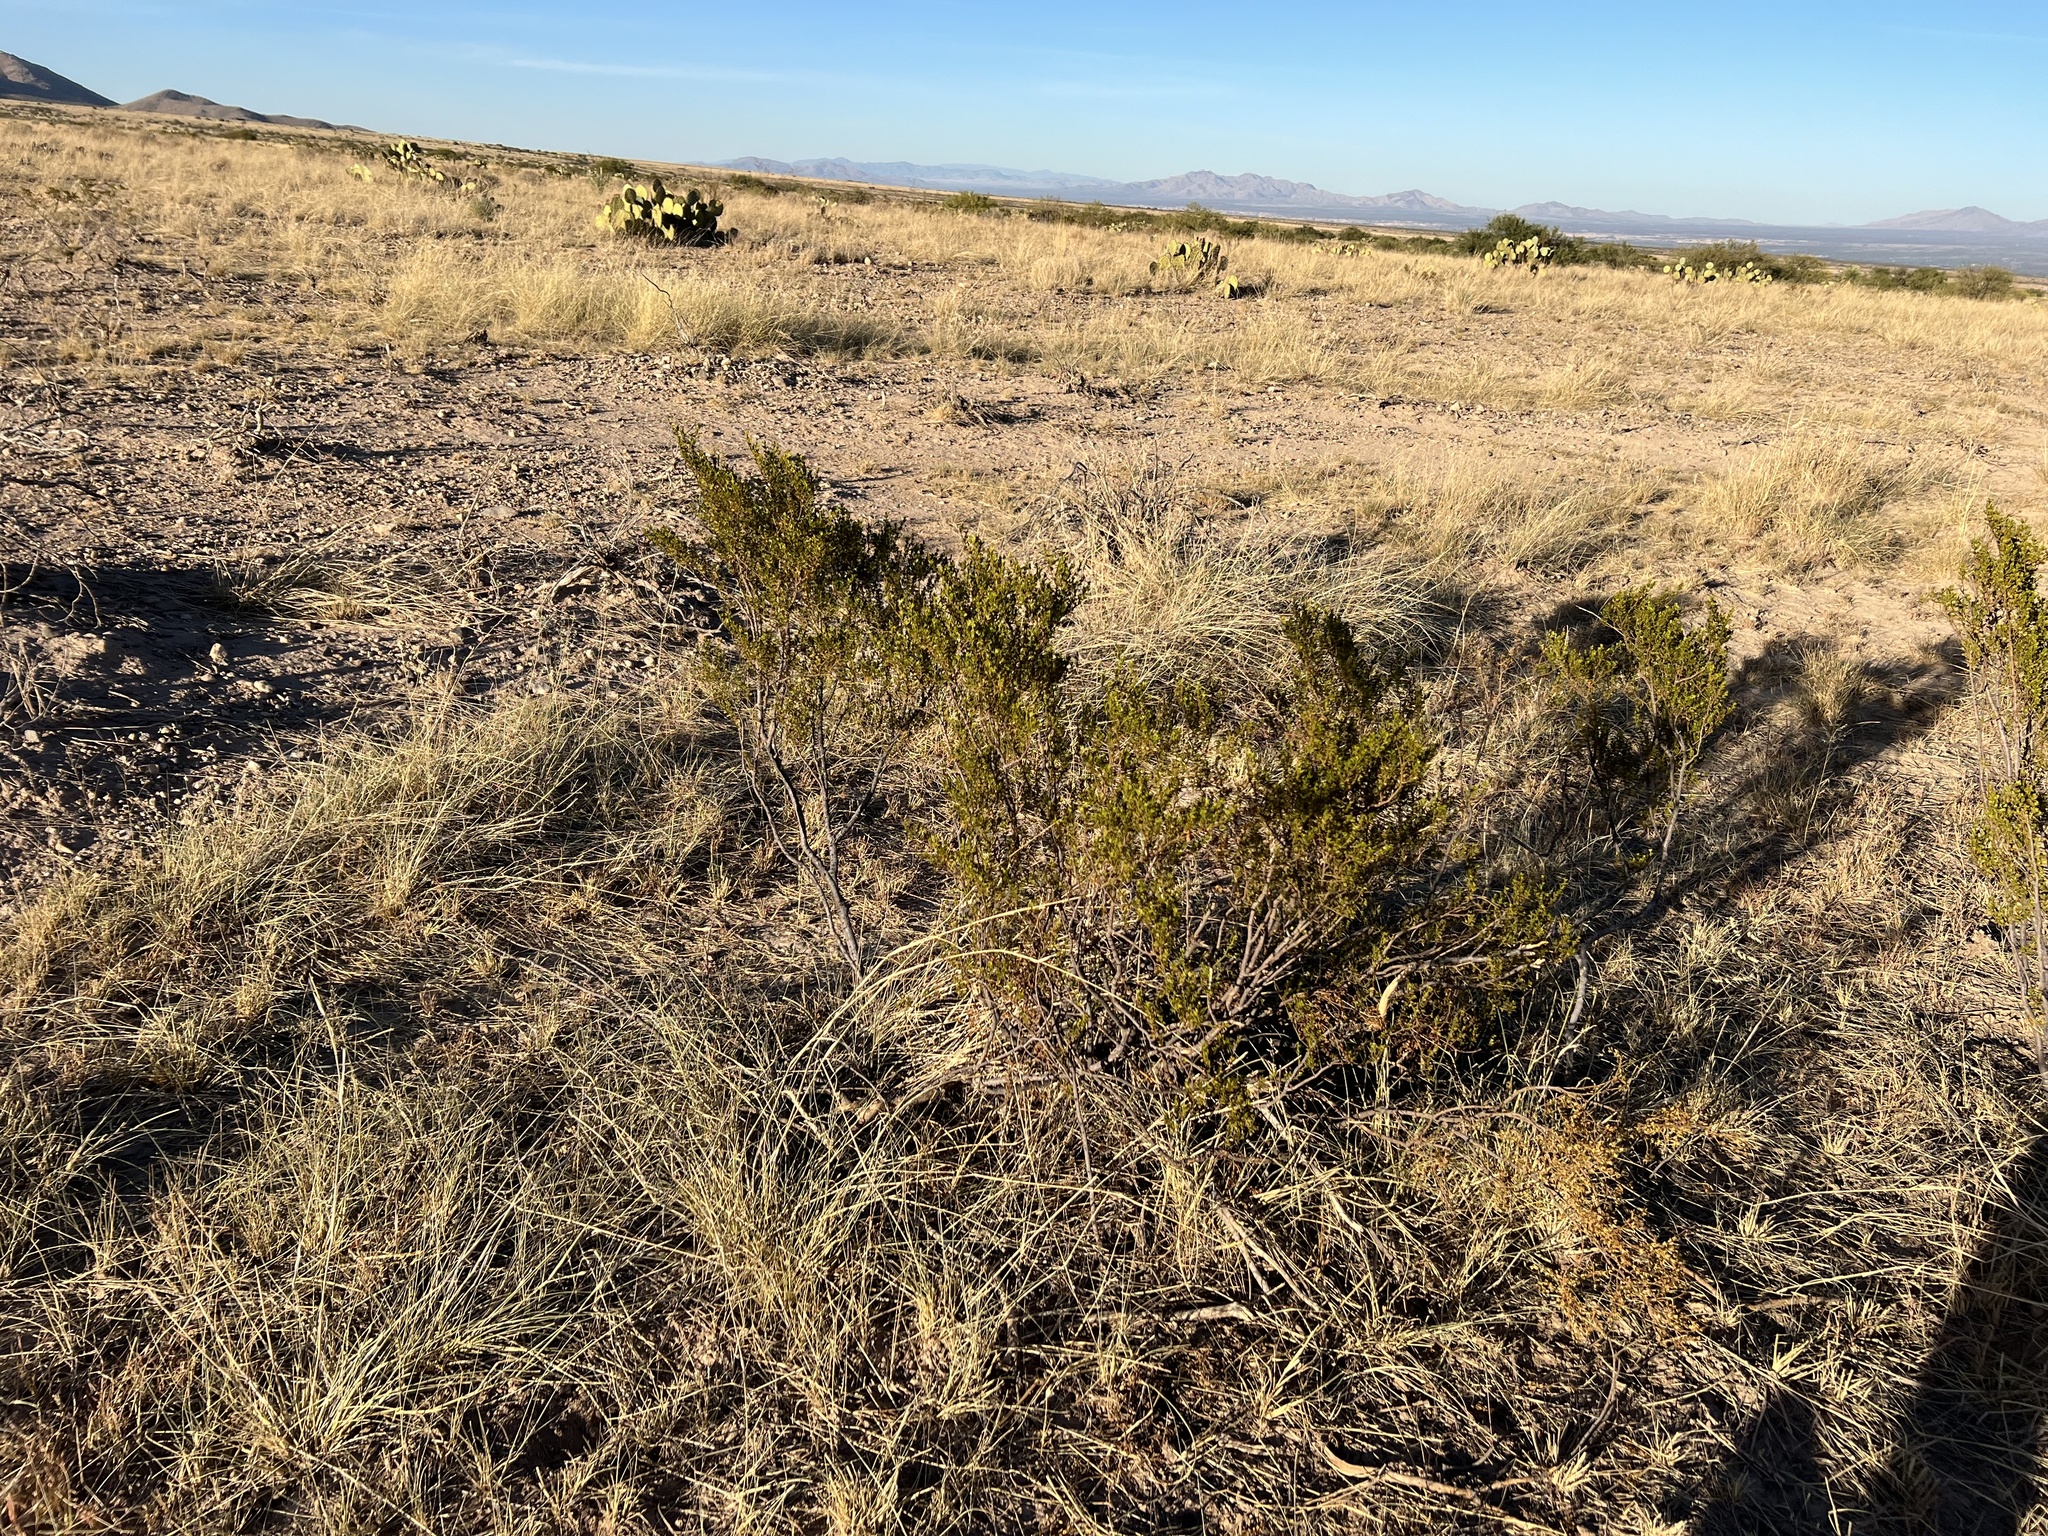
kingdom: Plantae
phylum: Tracheophyta
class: Magnoliopsida
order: Zygophyllales
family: Zygophyllaceae
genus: Larrea
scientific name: Larrea tridentata
